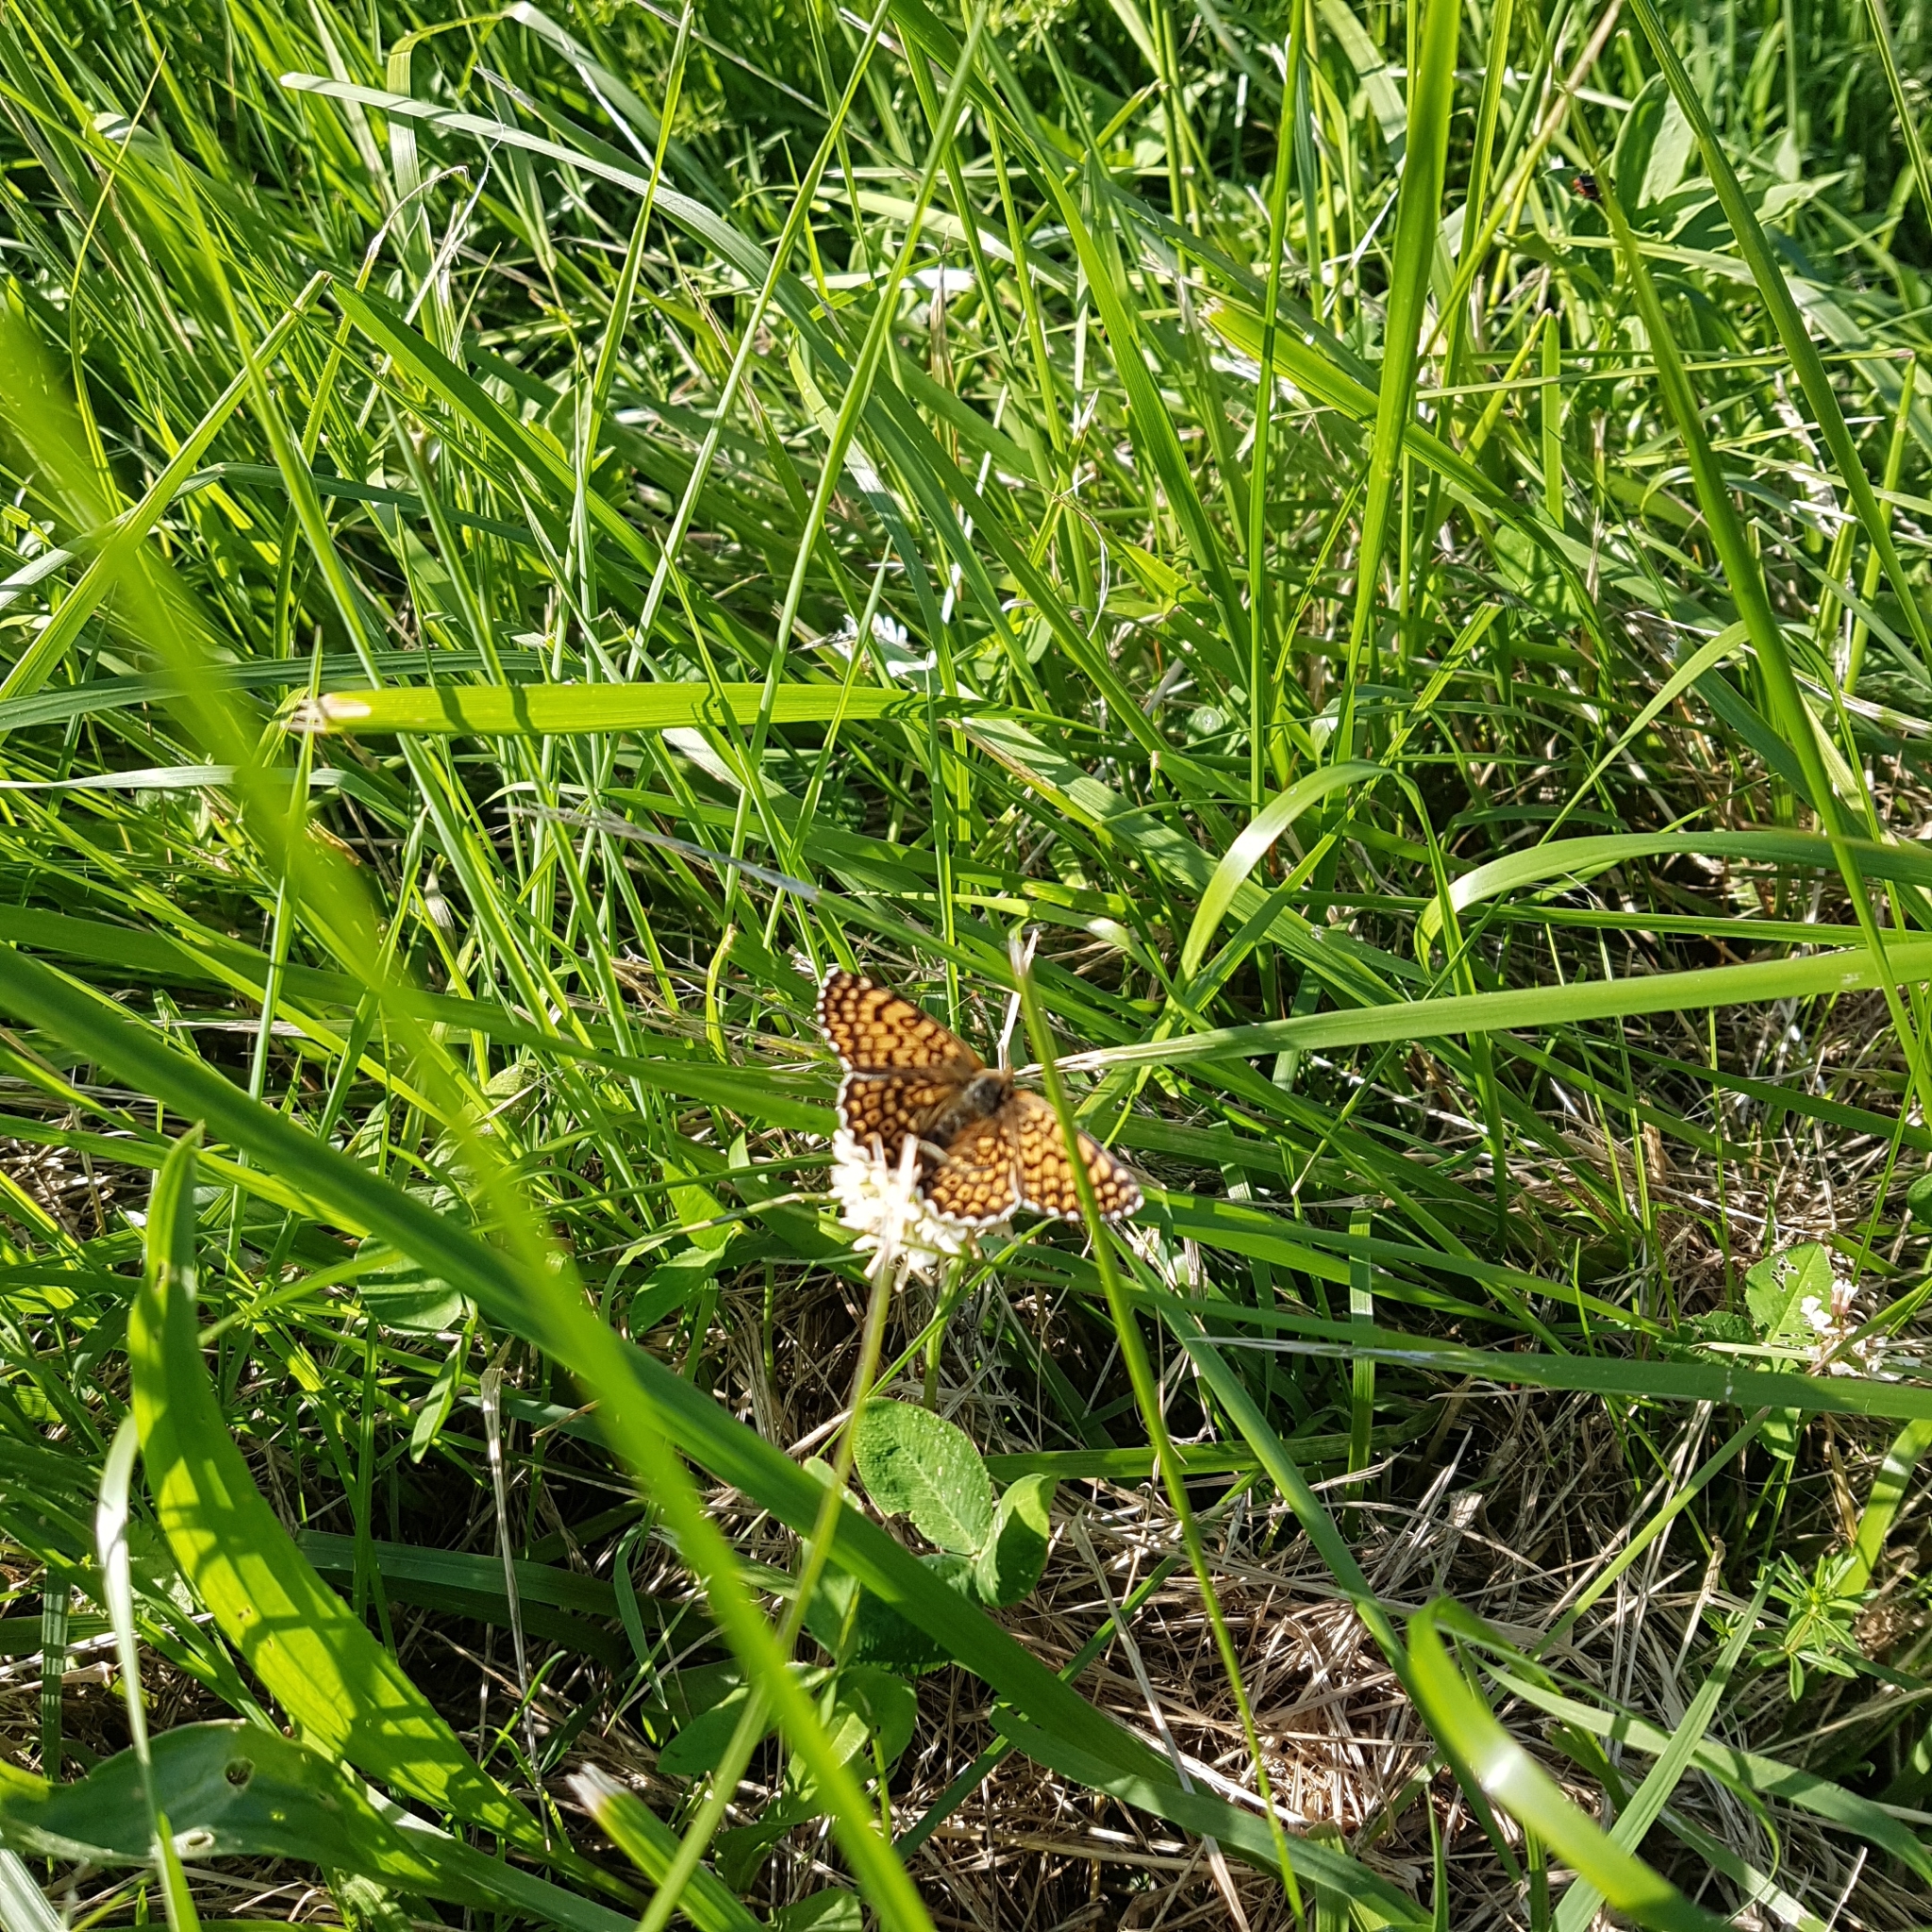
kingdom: Animalia
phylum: Arthropoda
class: Insecta
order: Lepidoptera
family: Nymphalidae
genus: Melitaea
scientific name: Melitaea cinxia
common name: Glanville fritillary
